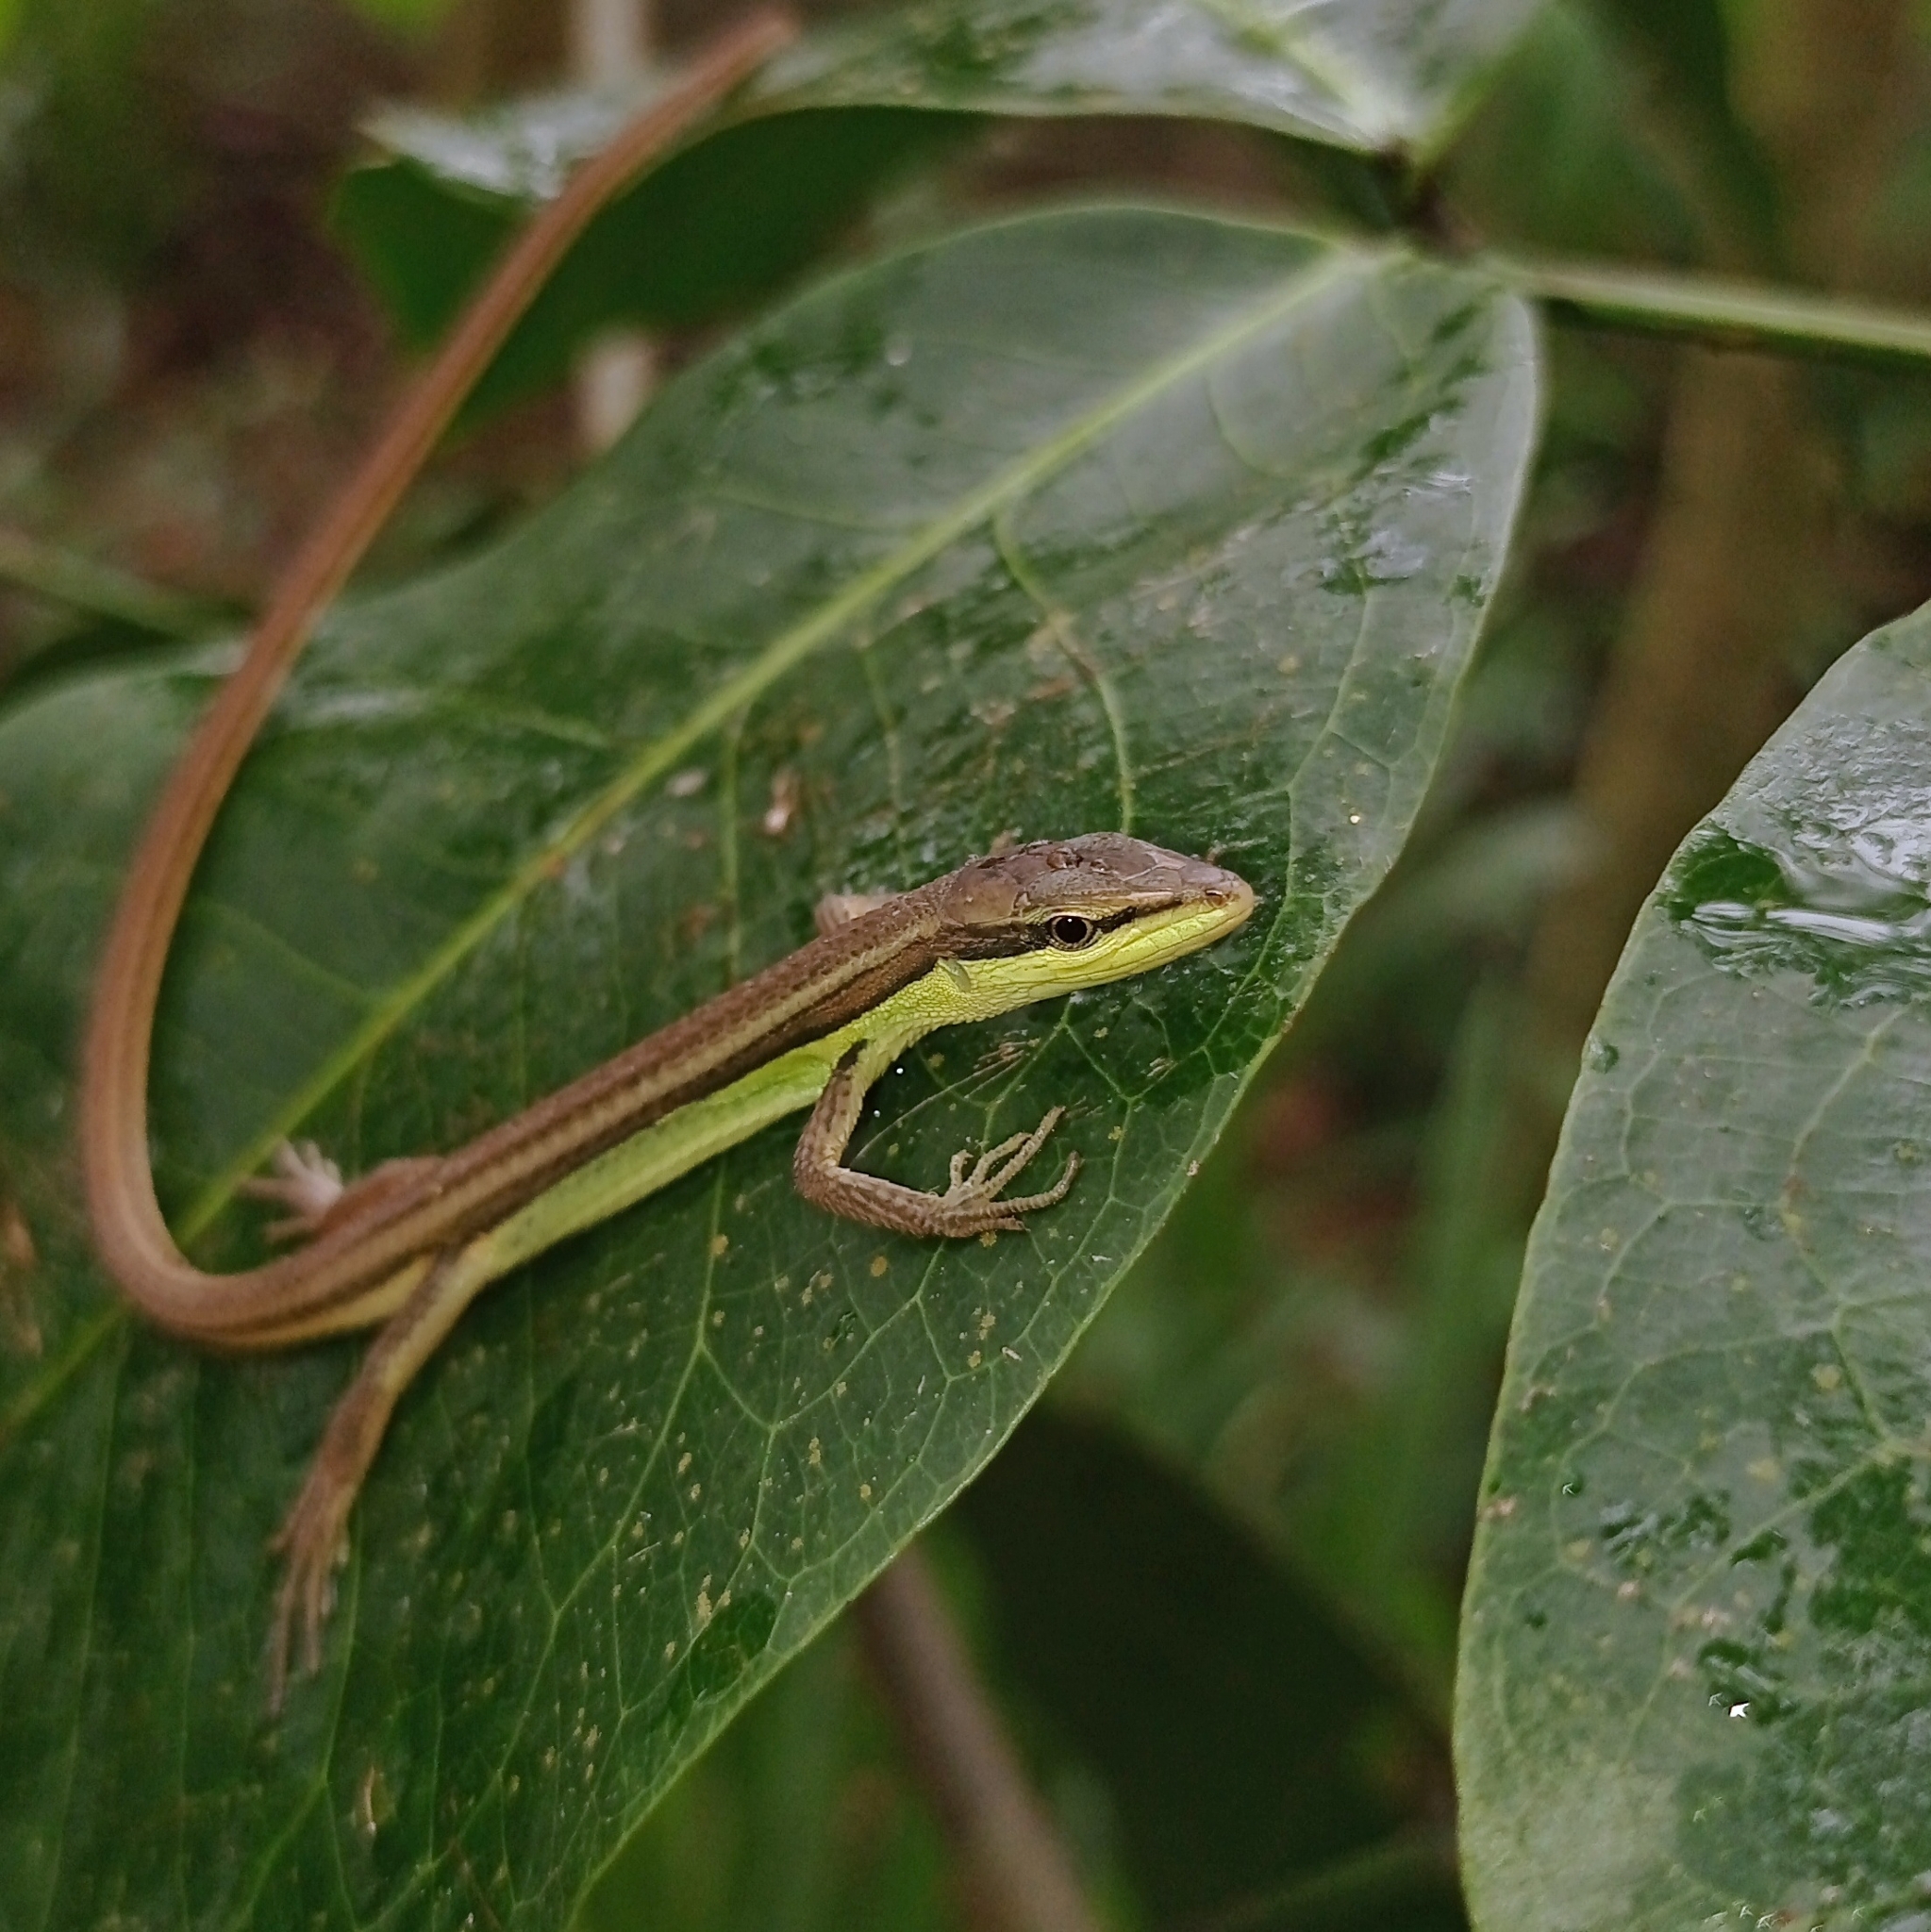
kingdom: Animalia
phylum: Chordata
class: Squamata
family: Lacertidae
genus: Takydromus
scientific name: Takydromus sexlineatus
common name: Asian grass lizard
